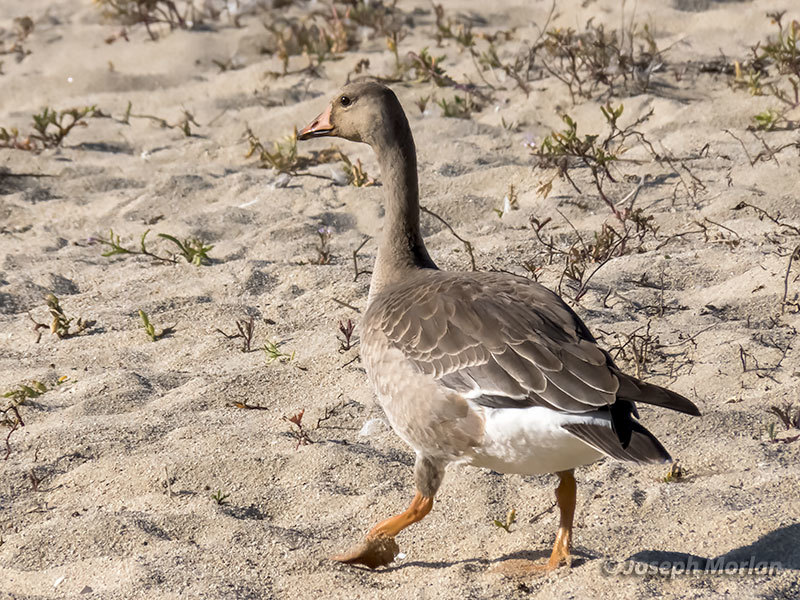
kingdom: Animalia
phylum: Chordata
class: Aves
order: Anseriformes
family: Anatidae
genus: Anser
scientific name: Anser albifrons
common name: Greater white-fronted goose
